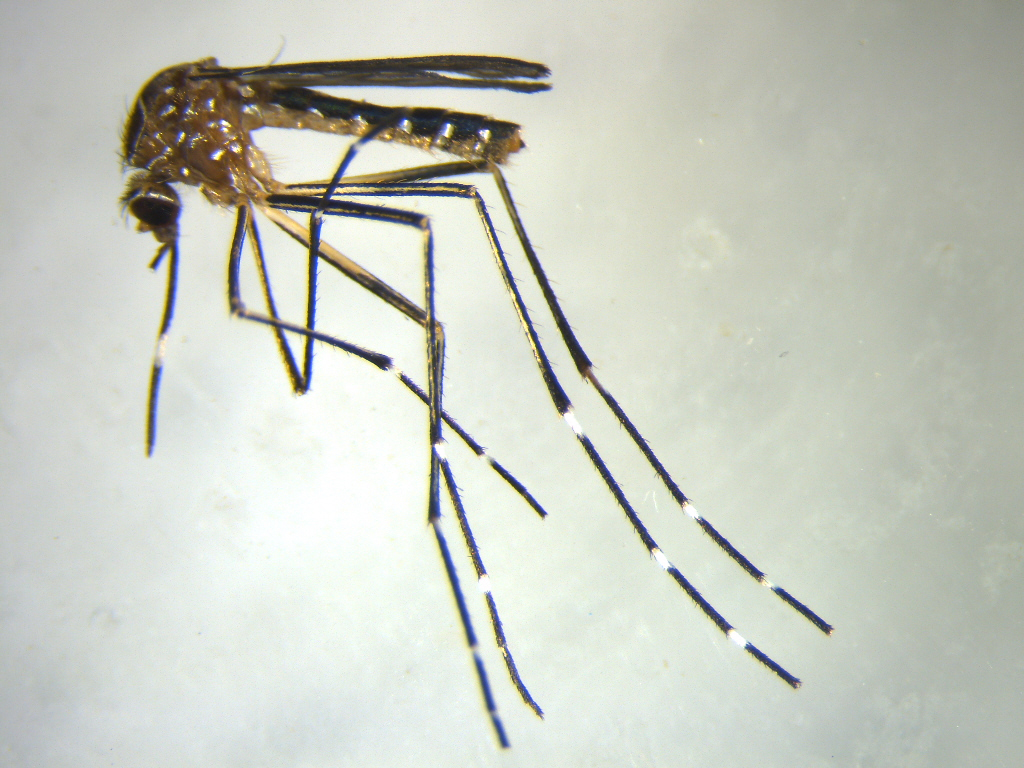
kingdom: Animalia
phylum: Arthropoda
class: Insecta
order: Diptera
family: Culicidae
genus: Aedes
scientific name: Aedes notoscriptus
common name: Australian backyard mosquito
